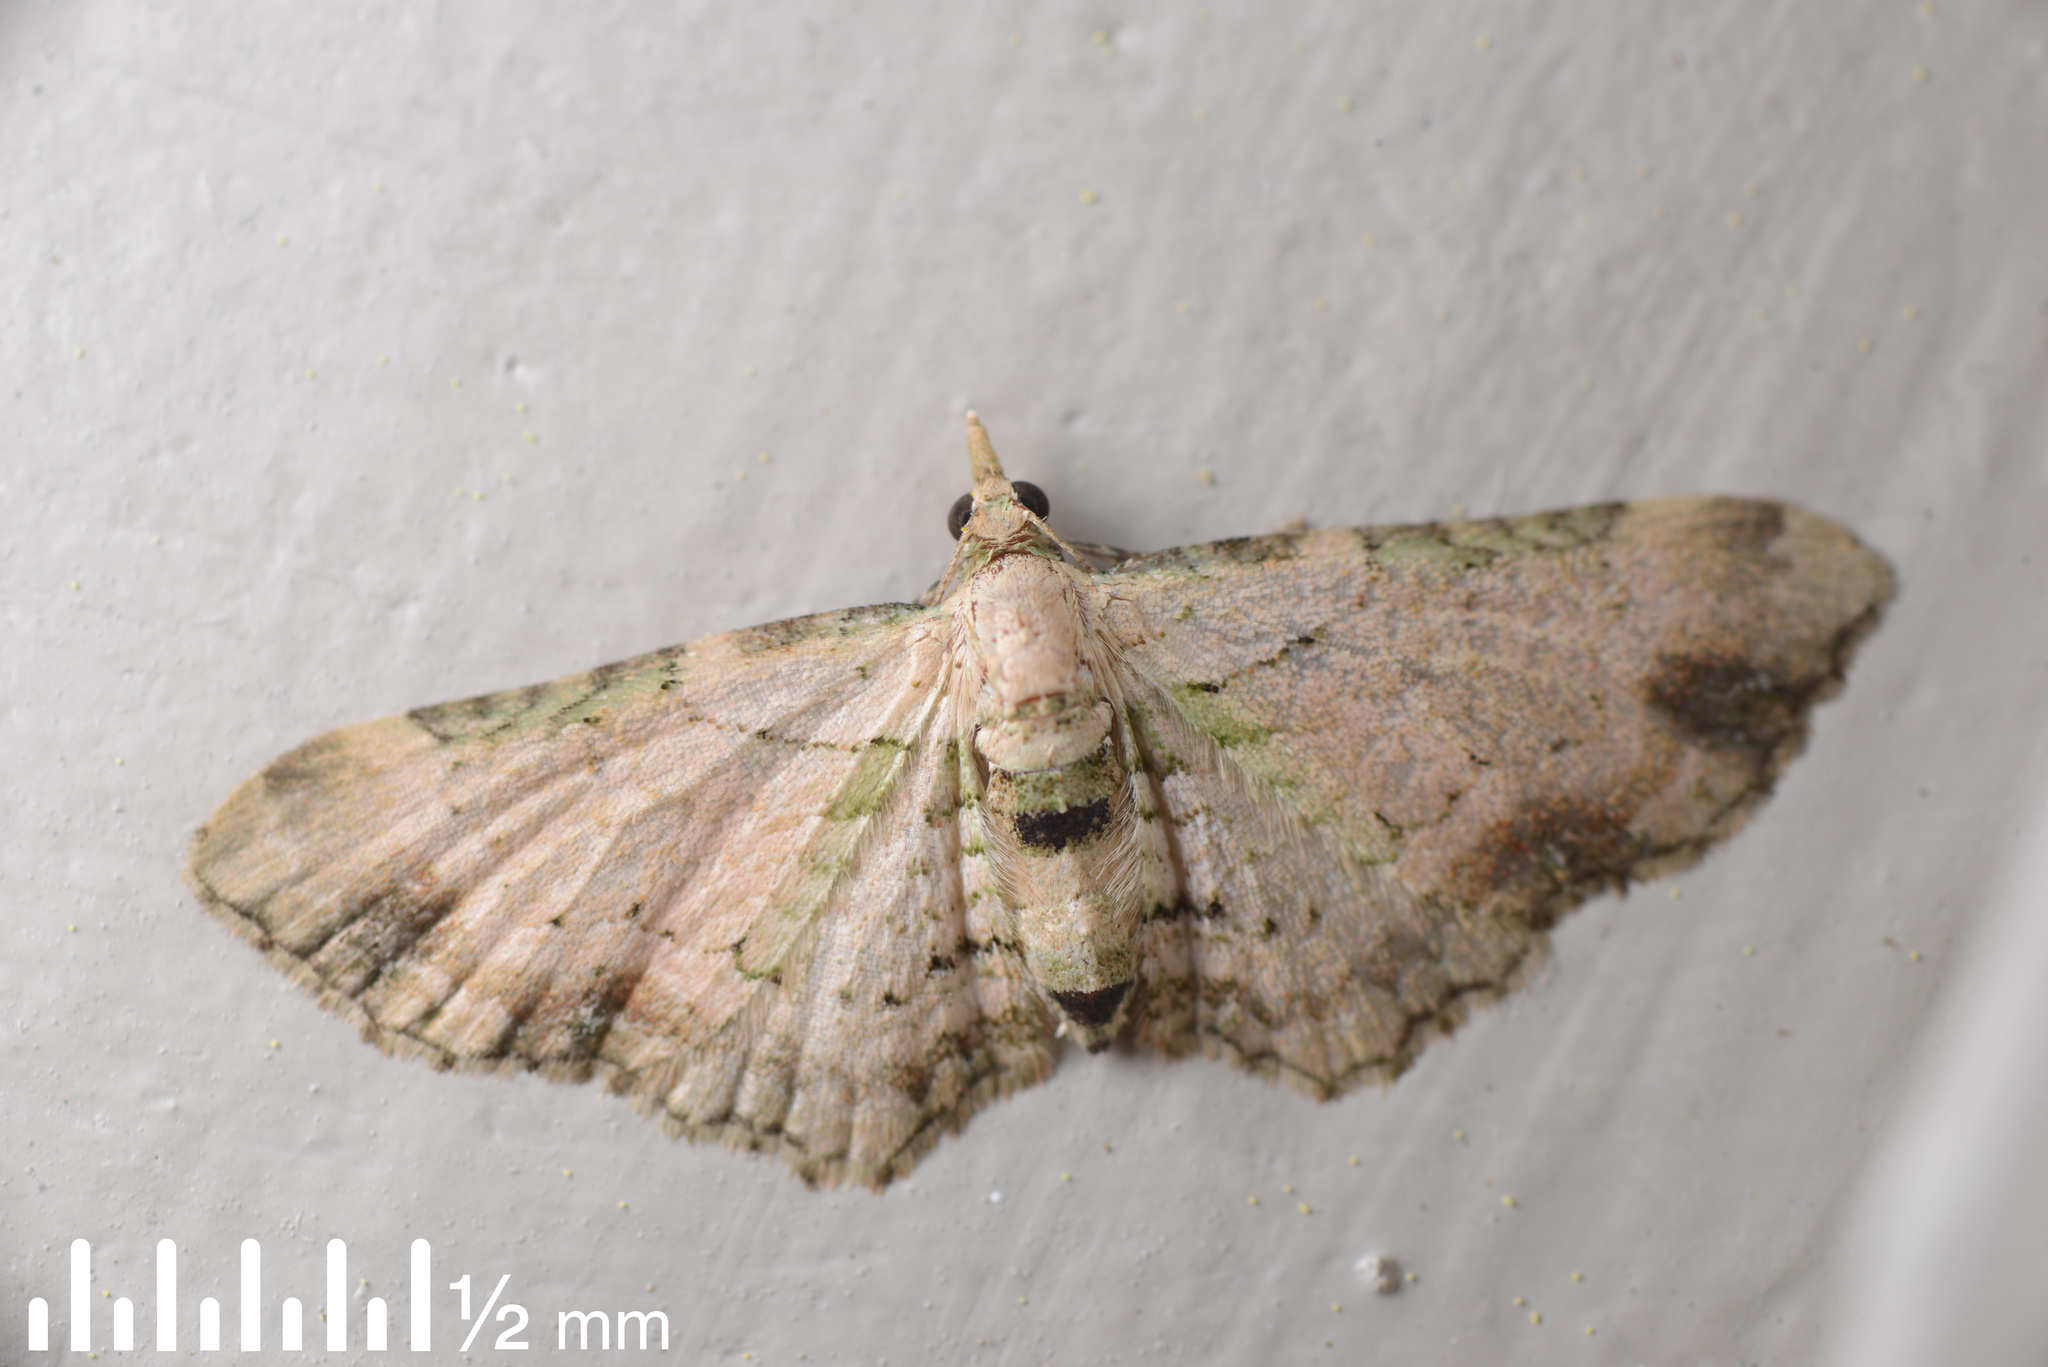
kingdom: Animalia
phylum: Arthropoda
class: Insecta
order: Lepidoptera
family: Geometridae
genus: Chloroclystis
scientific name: Chloroclystis
